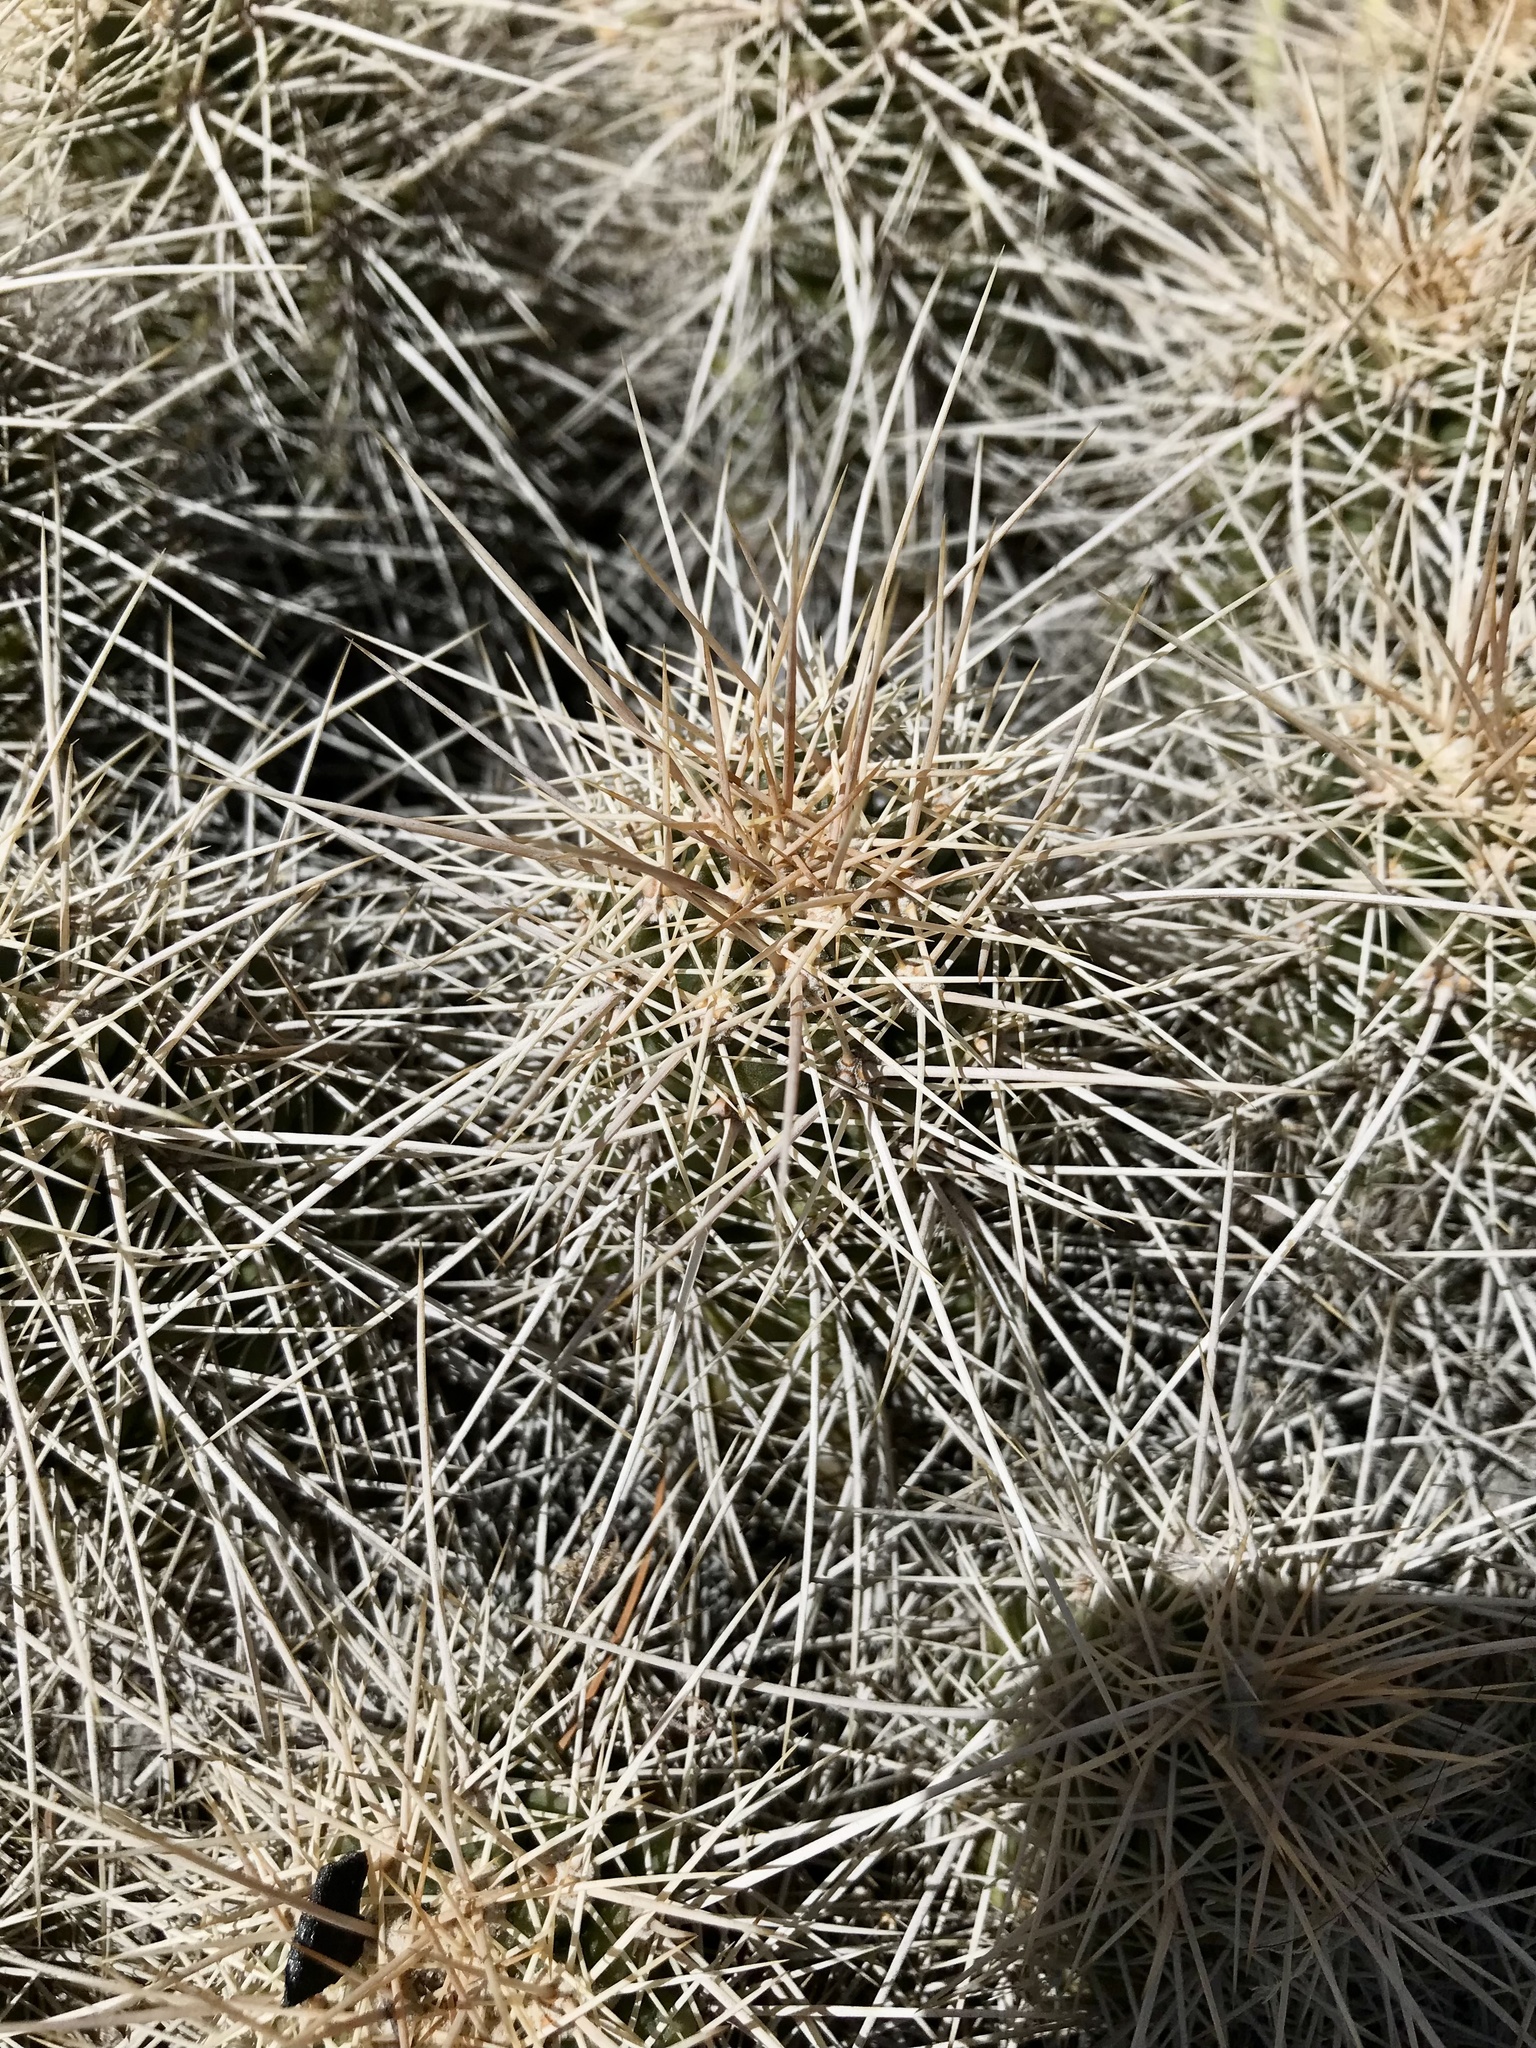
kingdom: Plantae
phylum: Tracheophyta
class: Magnoliopsida
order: Caryophyllales
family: Cactaceae
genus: Echinocereus
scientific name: Echinocereus coccineus
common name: Scarlet hedgehog cactus
